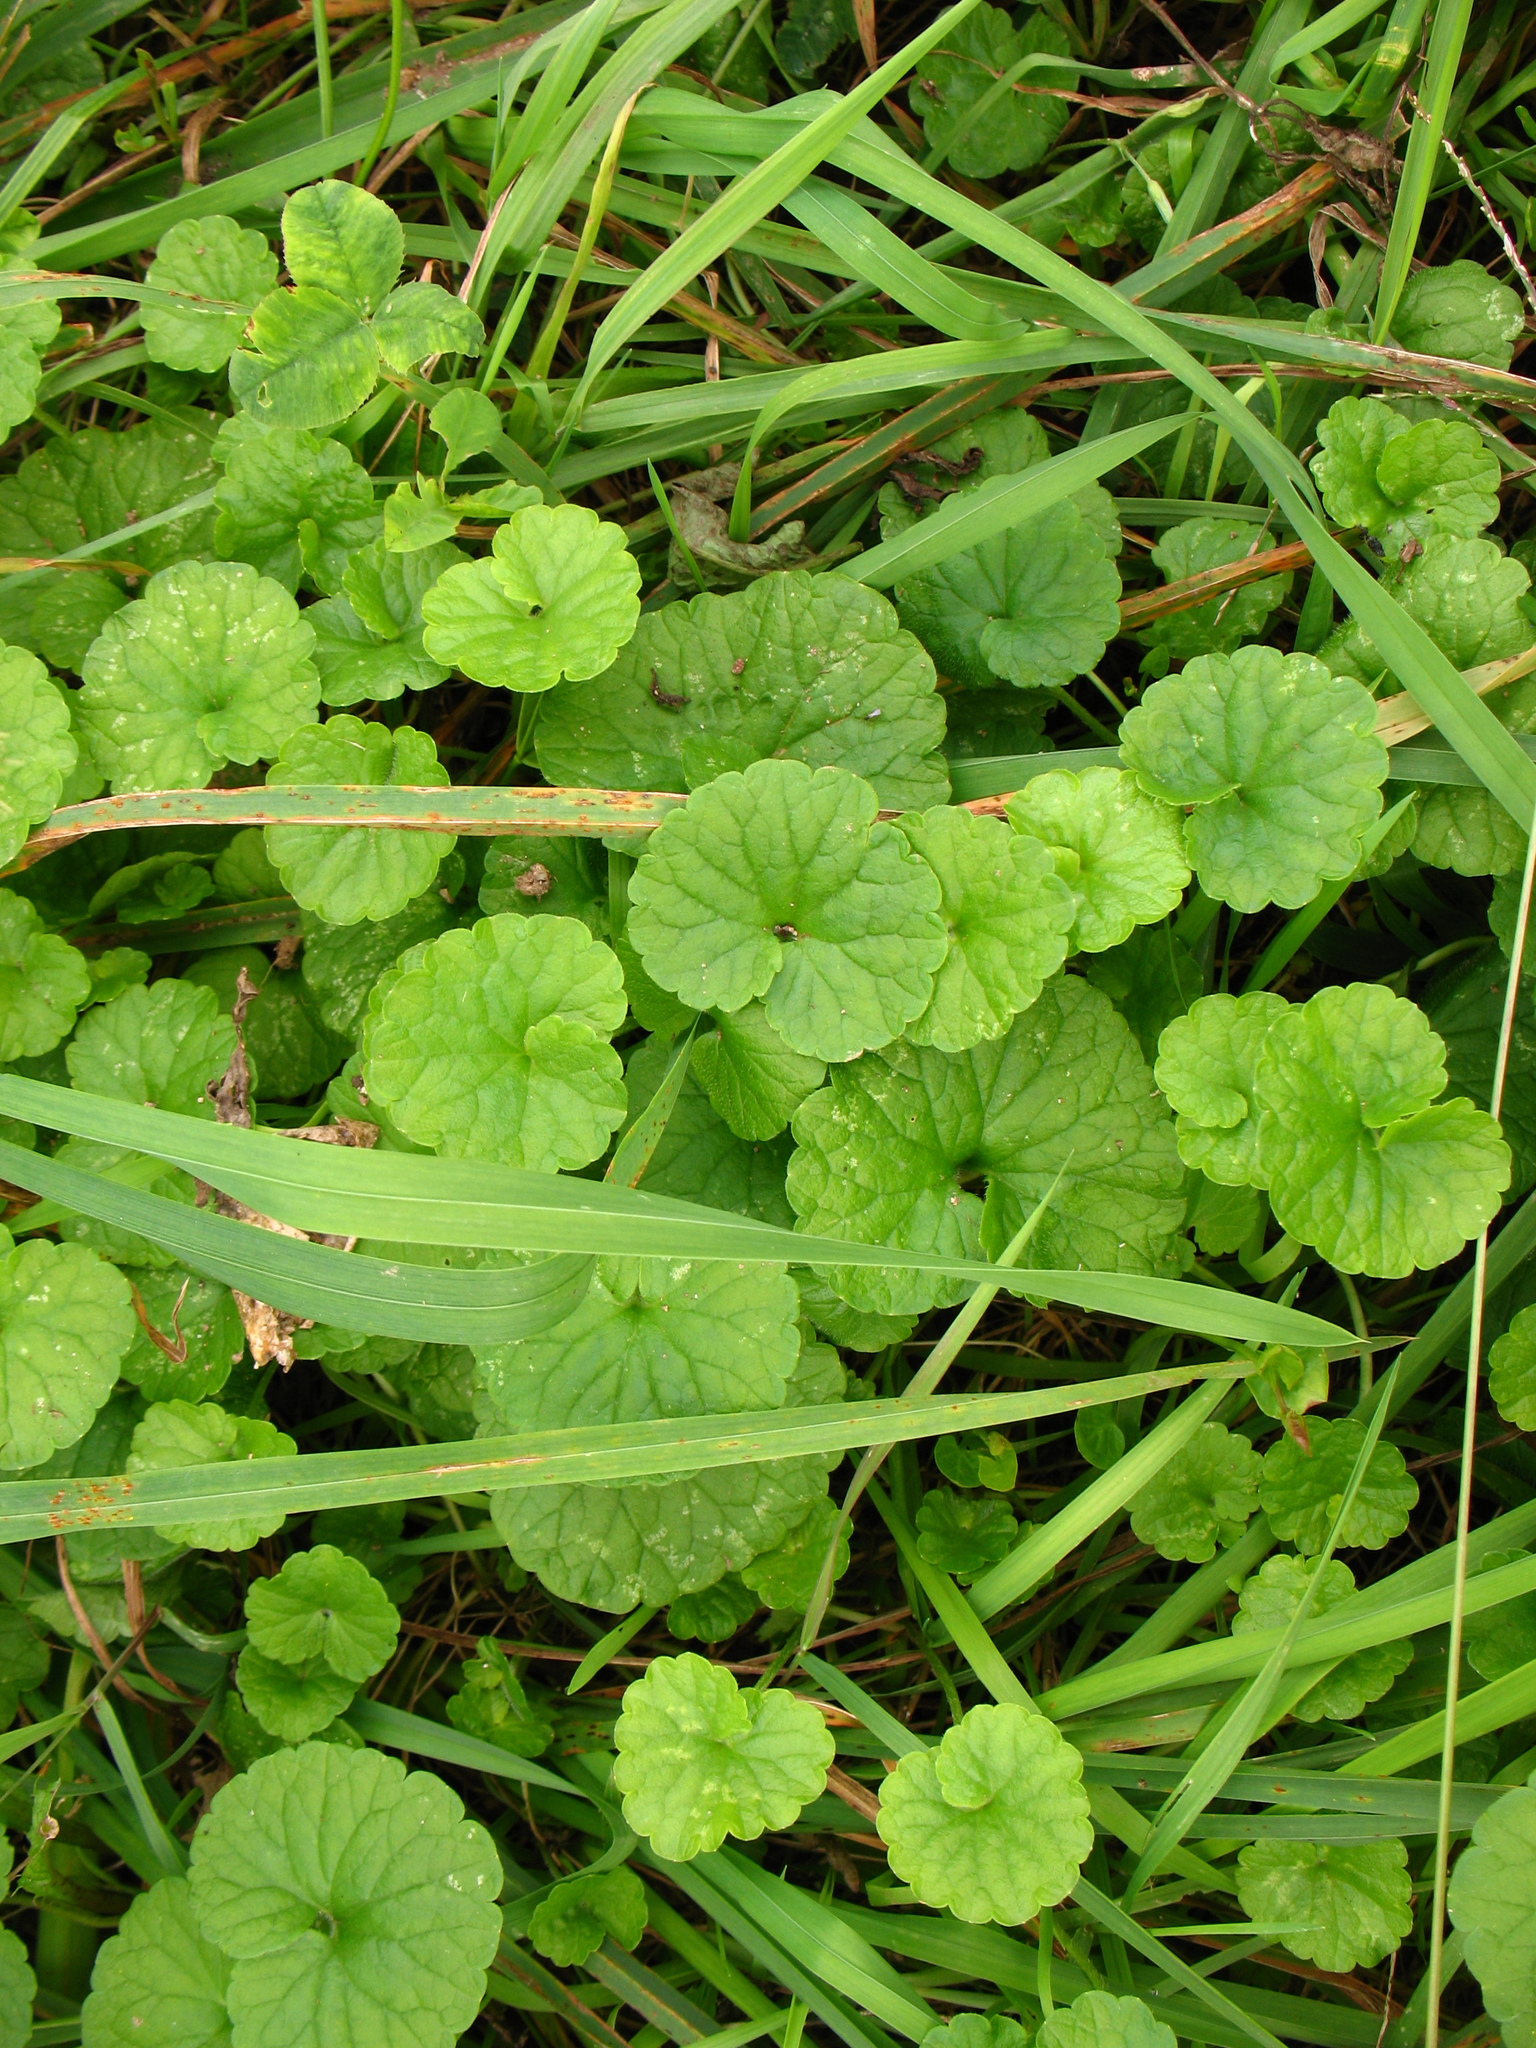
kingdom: Plantae
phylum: Tracheophyta
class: Magnoliopsida
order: Lamiales
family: Lamiaceae
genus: Glechoma
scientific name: Glechoma hederacea
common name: Ground ivy
